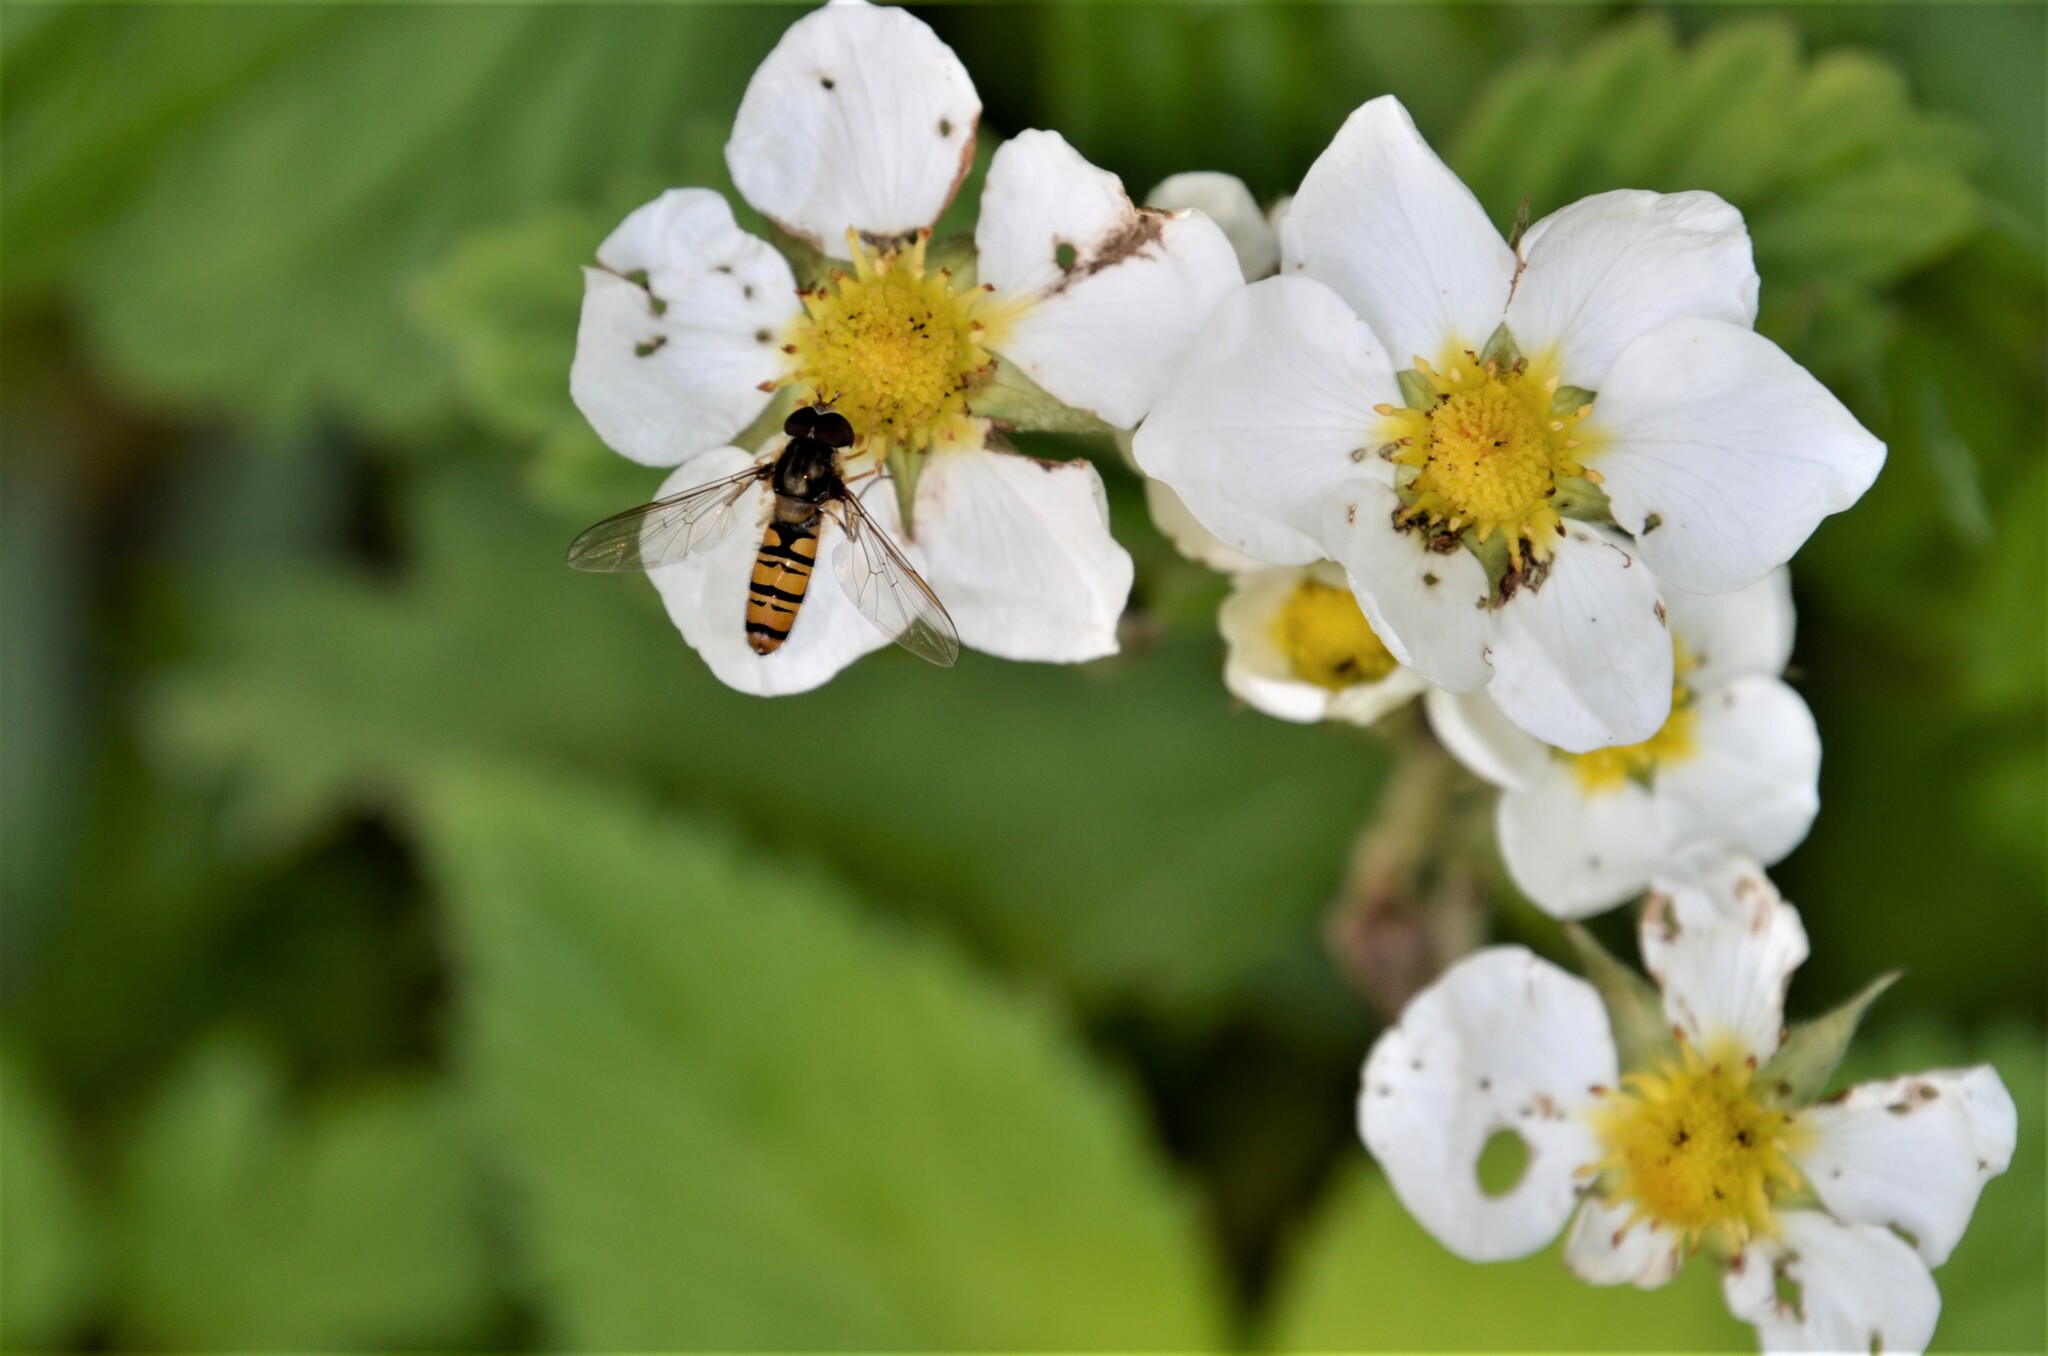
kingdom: Animalia
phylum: Arthropoda
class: Insecta
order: Diptera
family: Syrphidae
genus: Episyrphus
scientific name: Episyrphus balteatus
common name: Marmalade hoverfly
